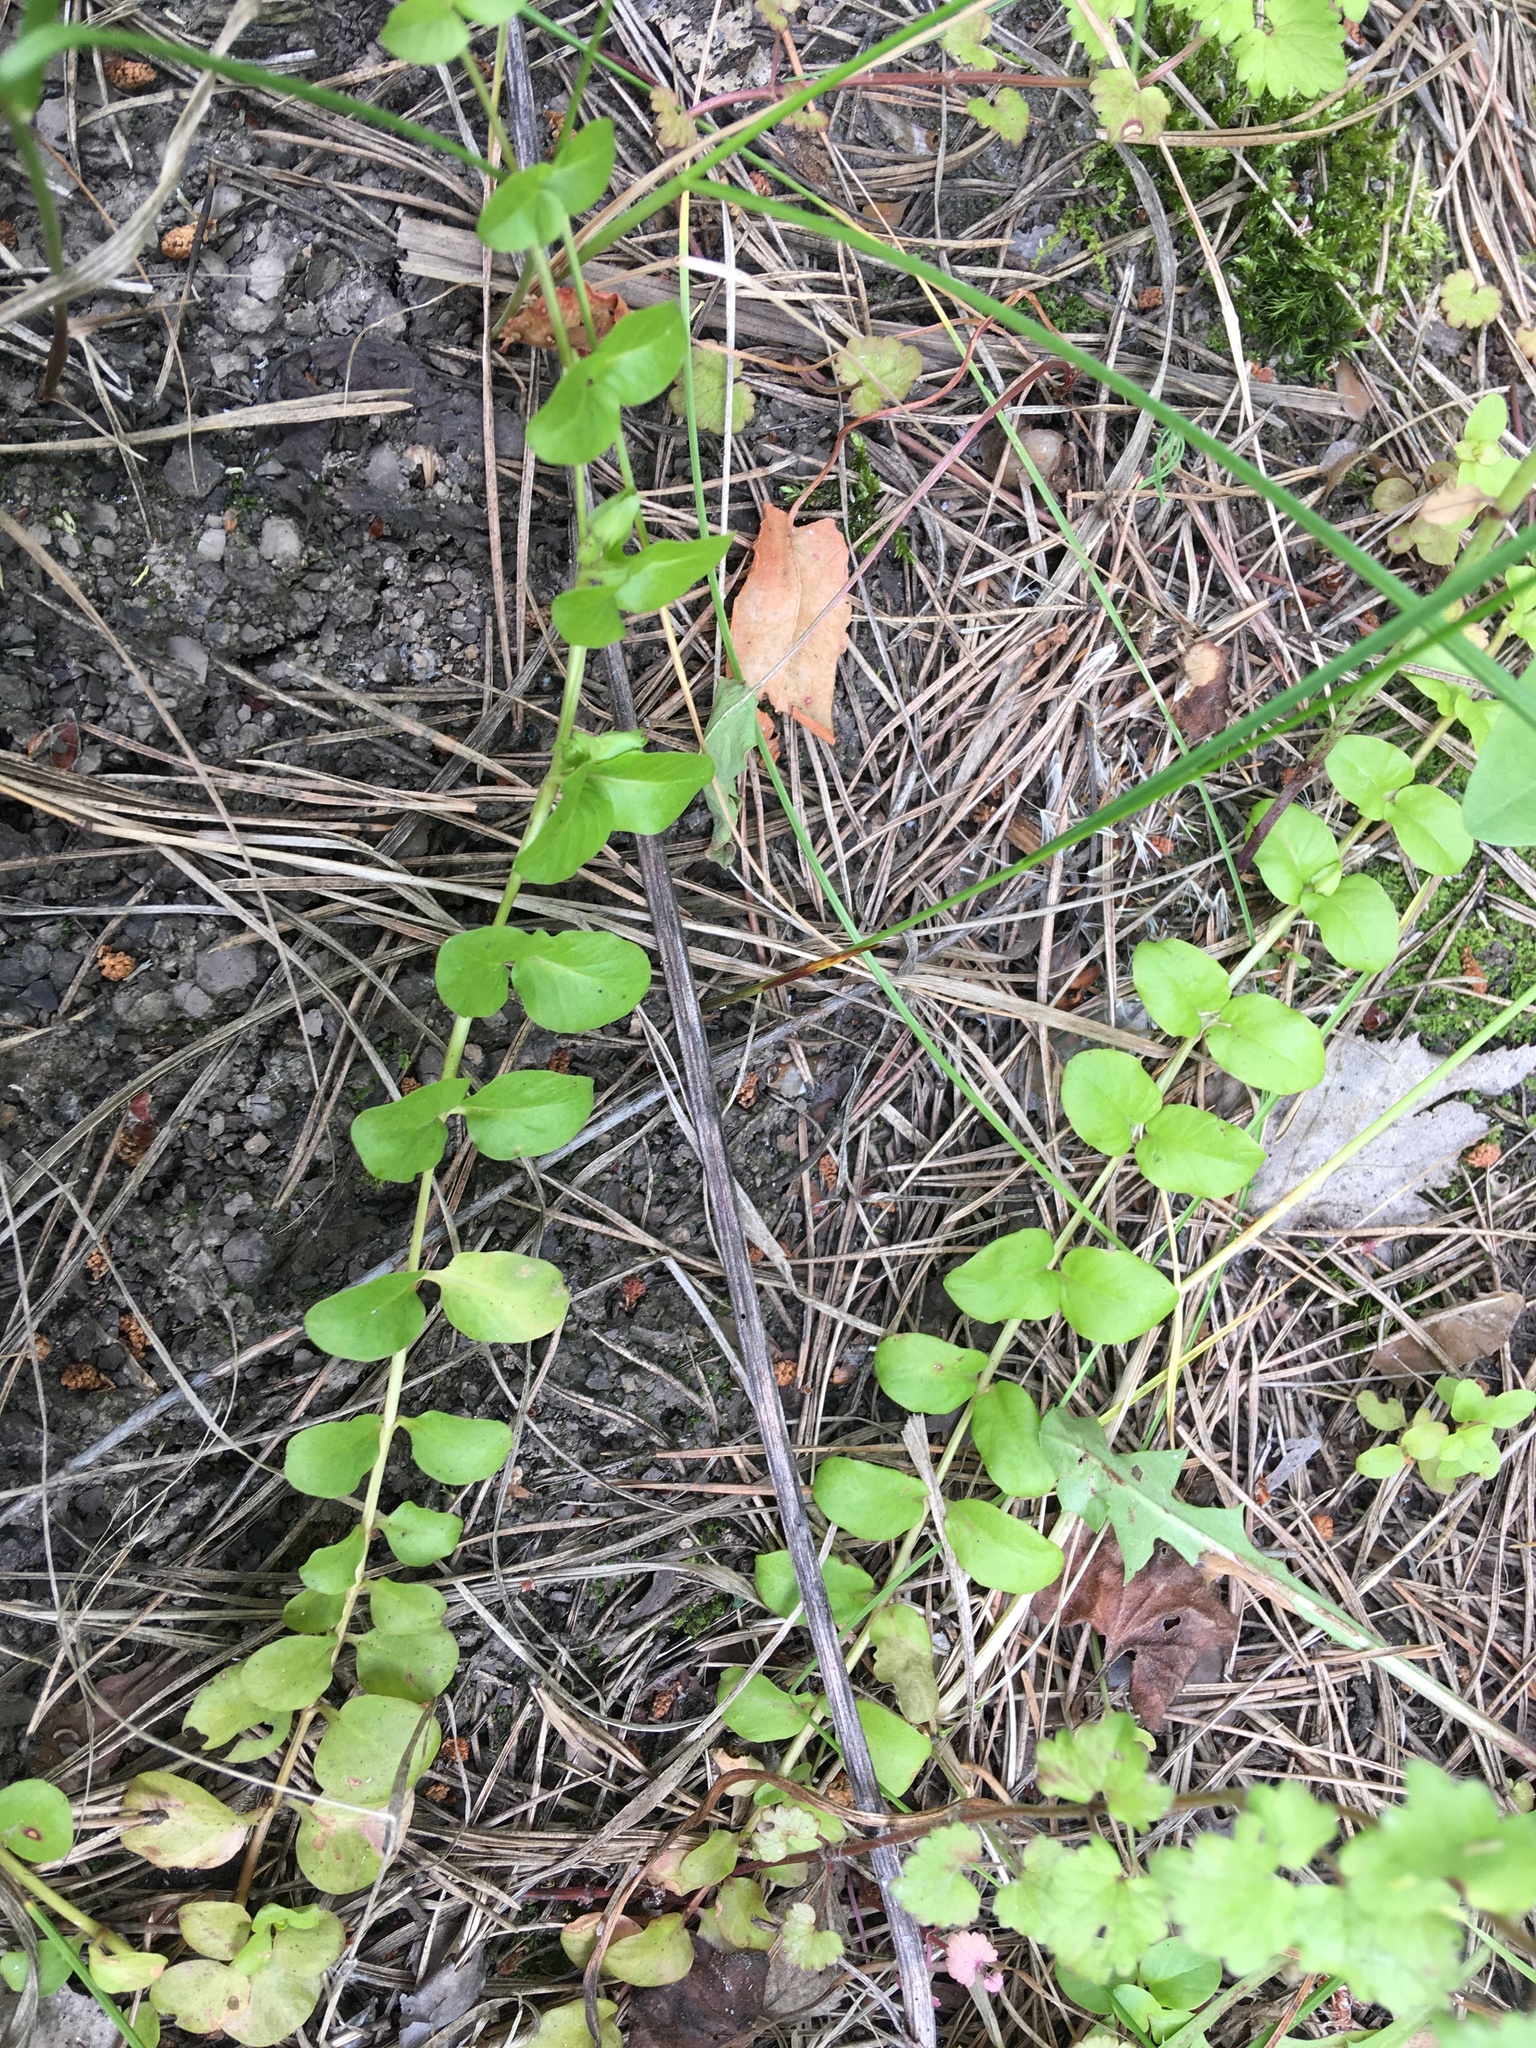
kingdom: Plantae
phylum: Tracheophyta
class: Magnoliopsida
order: Ericales
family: Primulaceae
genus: Lysimachia
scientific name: Lysimachia nummularia
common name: Moneywort
